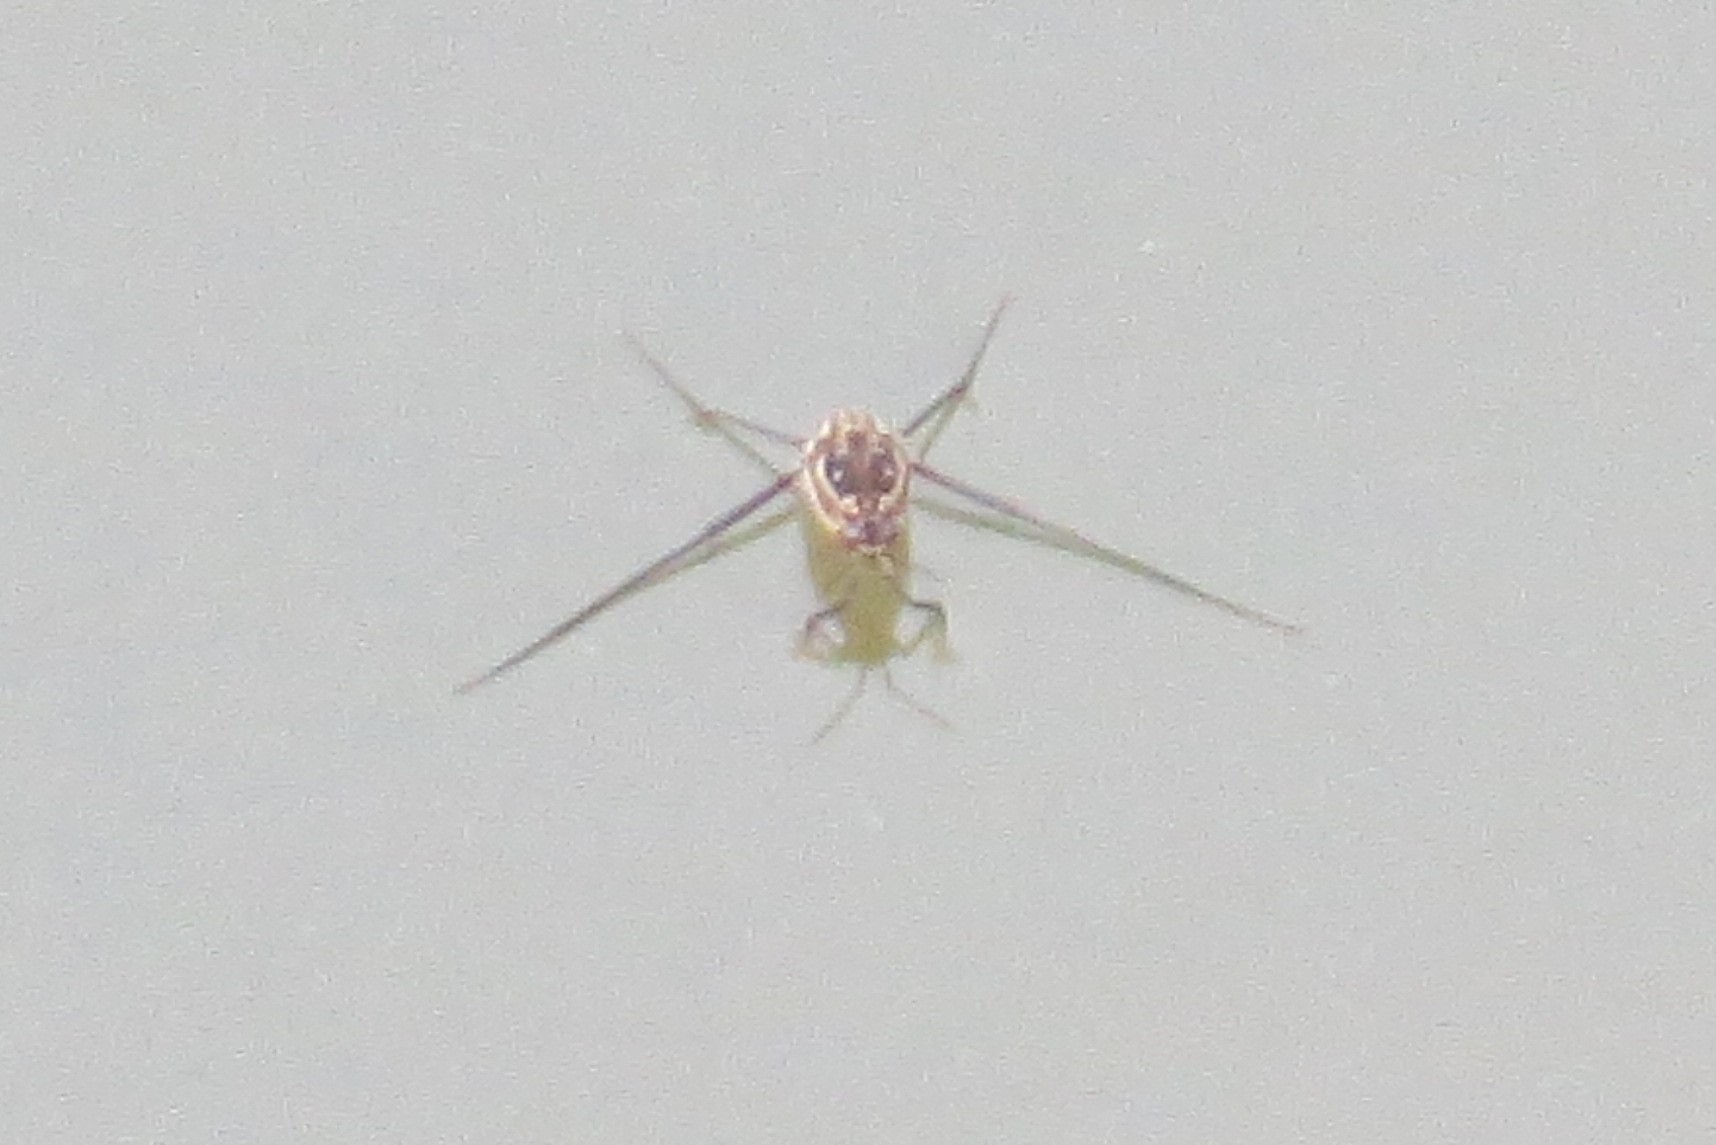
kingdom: Animalia
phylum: Arthropoda
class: Insecta
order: Hemiptera
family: Gerridae
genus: Trepobates
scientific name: Trepobates
